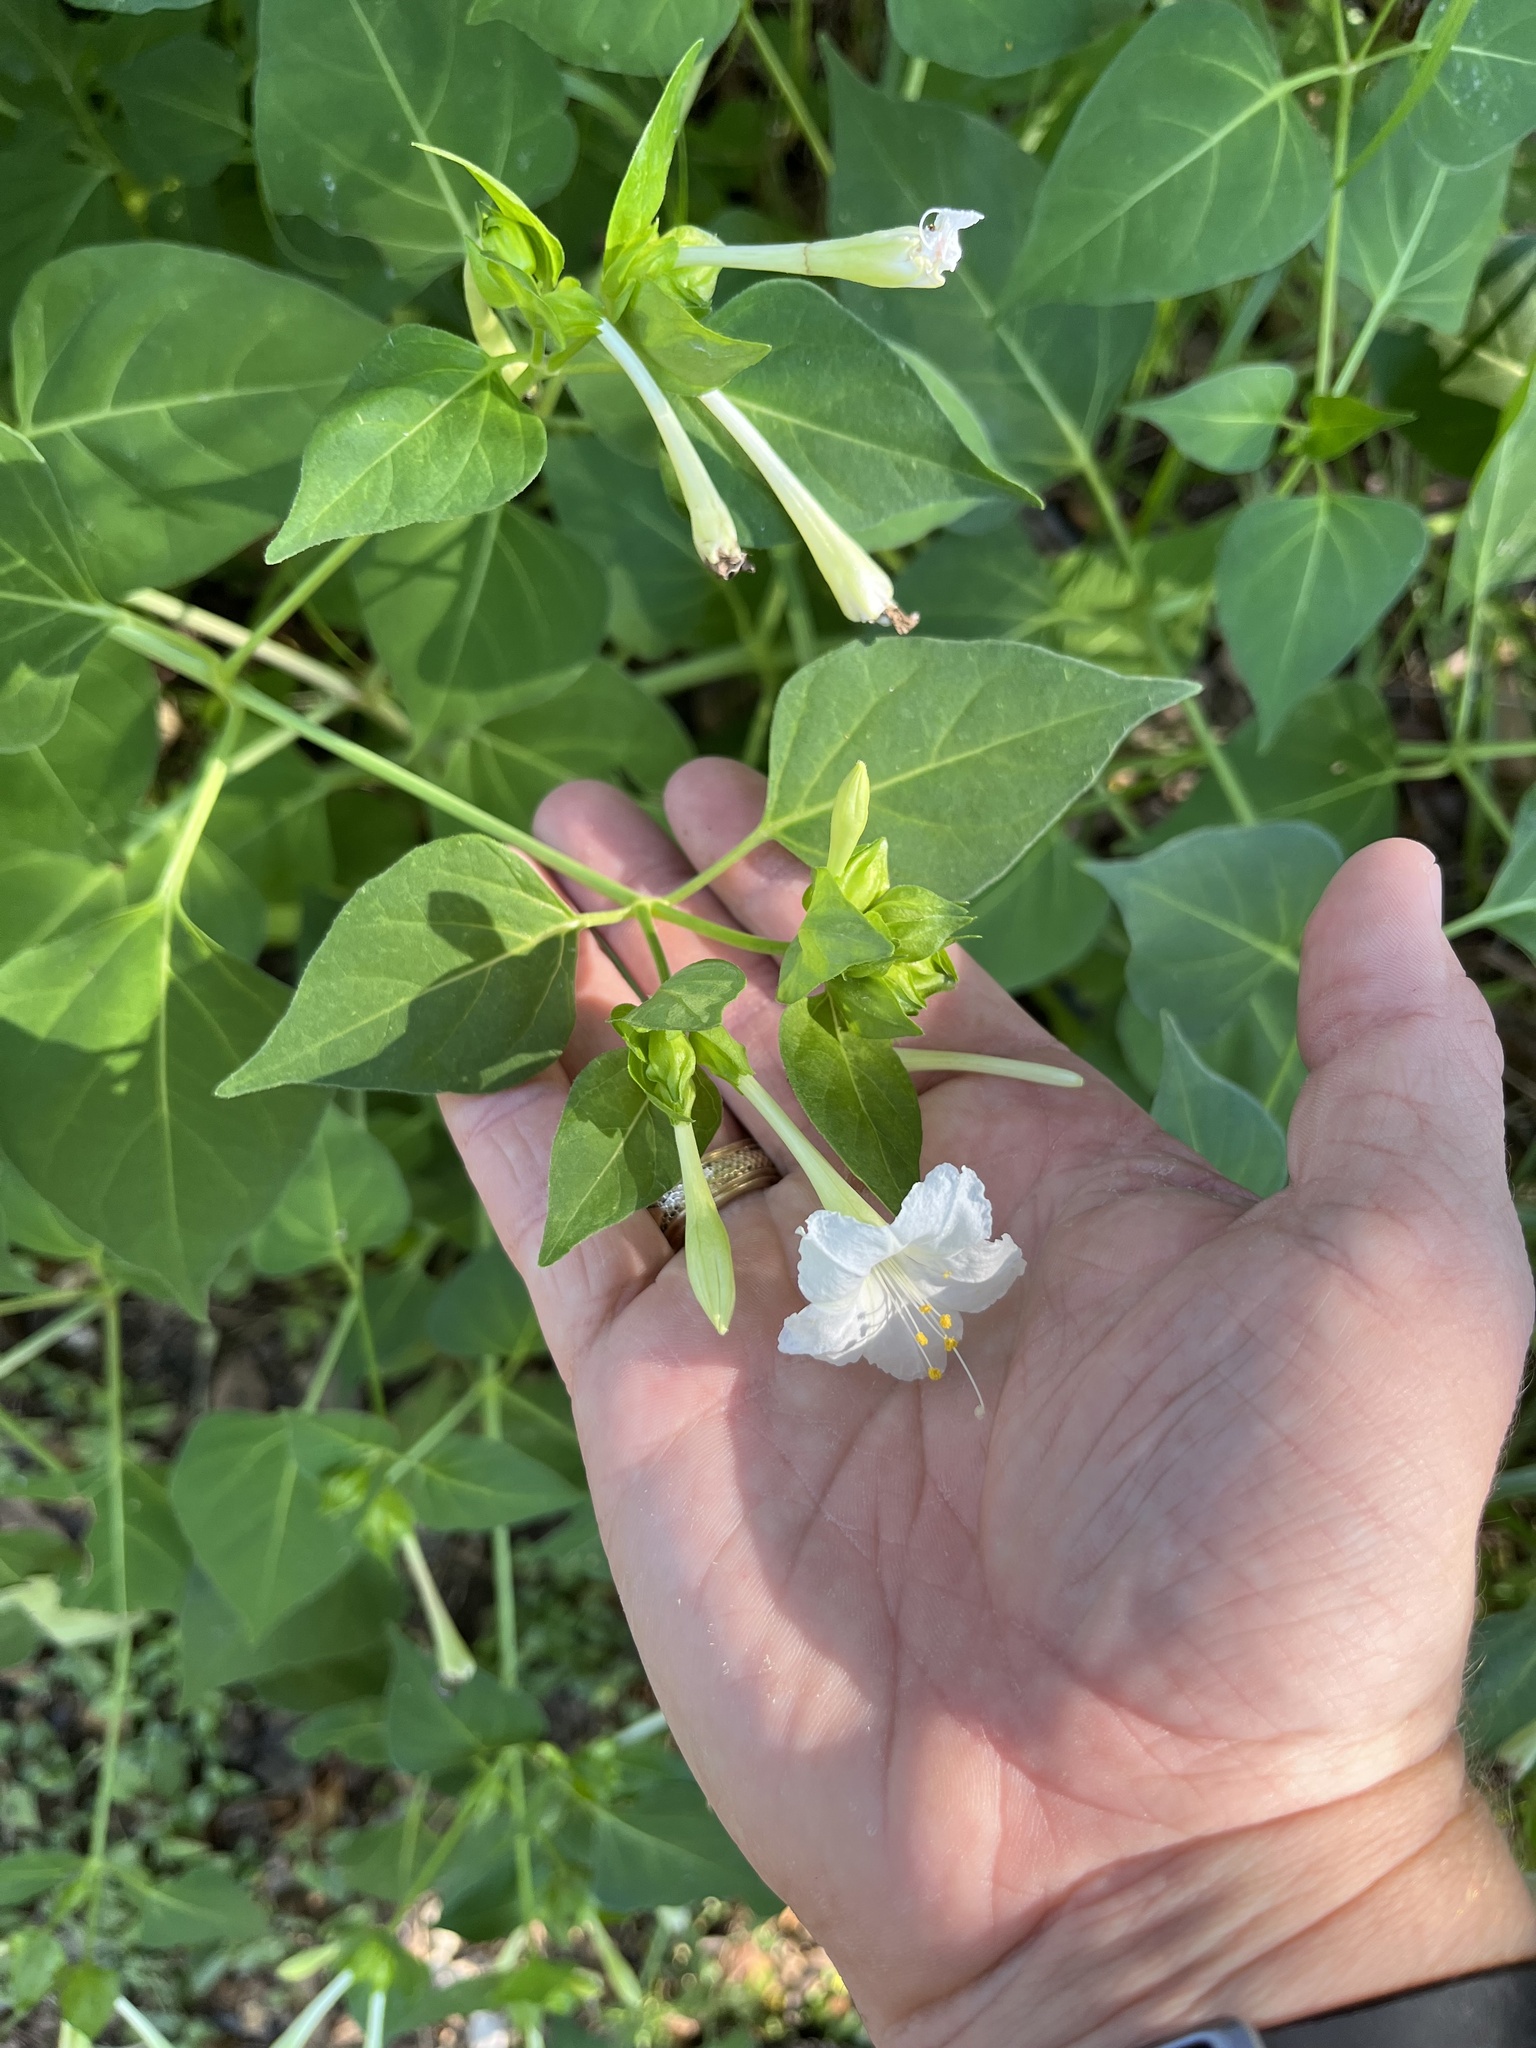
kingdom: Plantae
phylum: Tracheophyta
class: Magnoliopsida
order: Caryophyllales
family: Nyctaginaceae
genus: Mirabilis
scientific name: Mirabilis jalapa
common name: Marvel-of-peru
